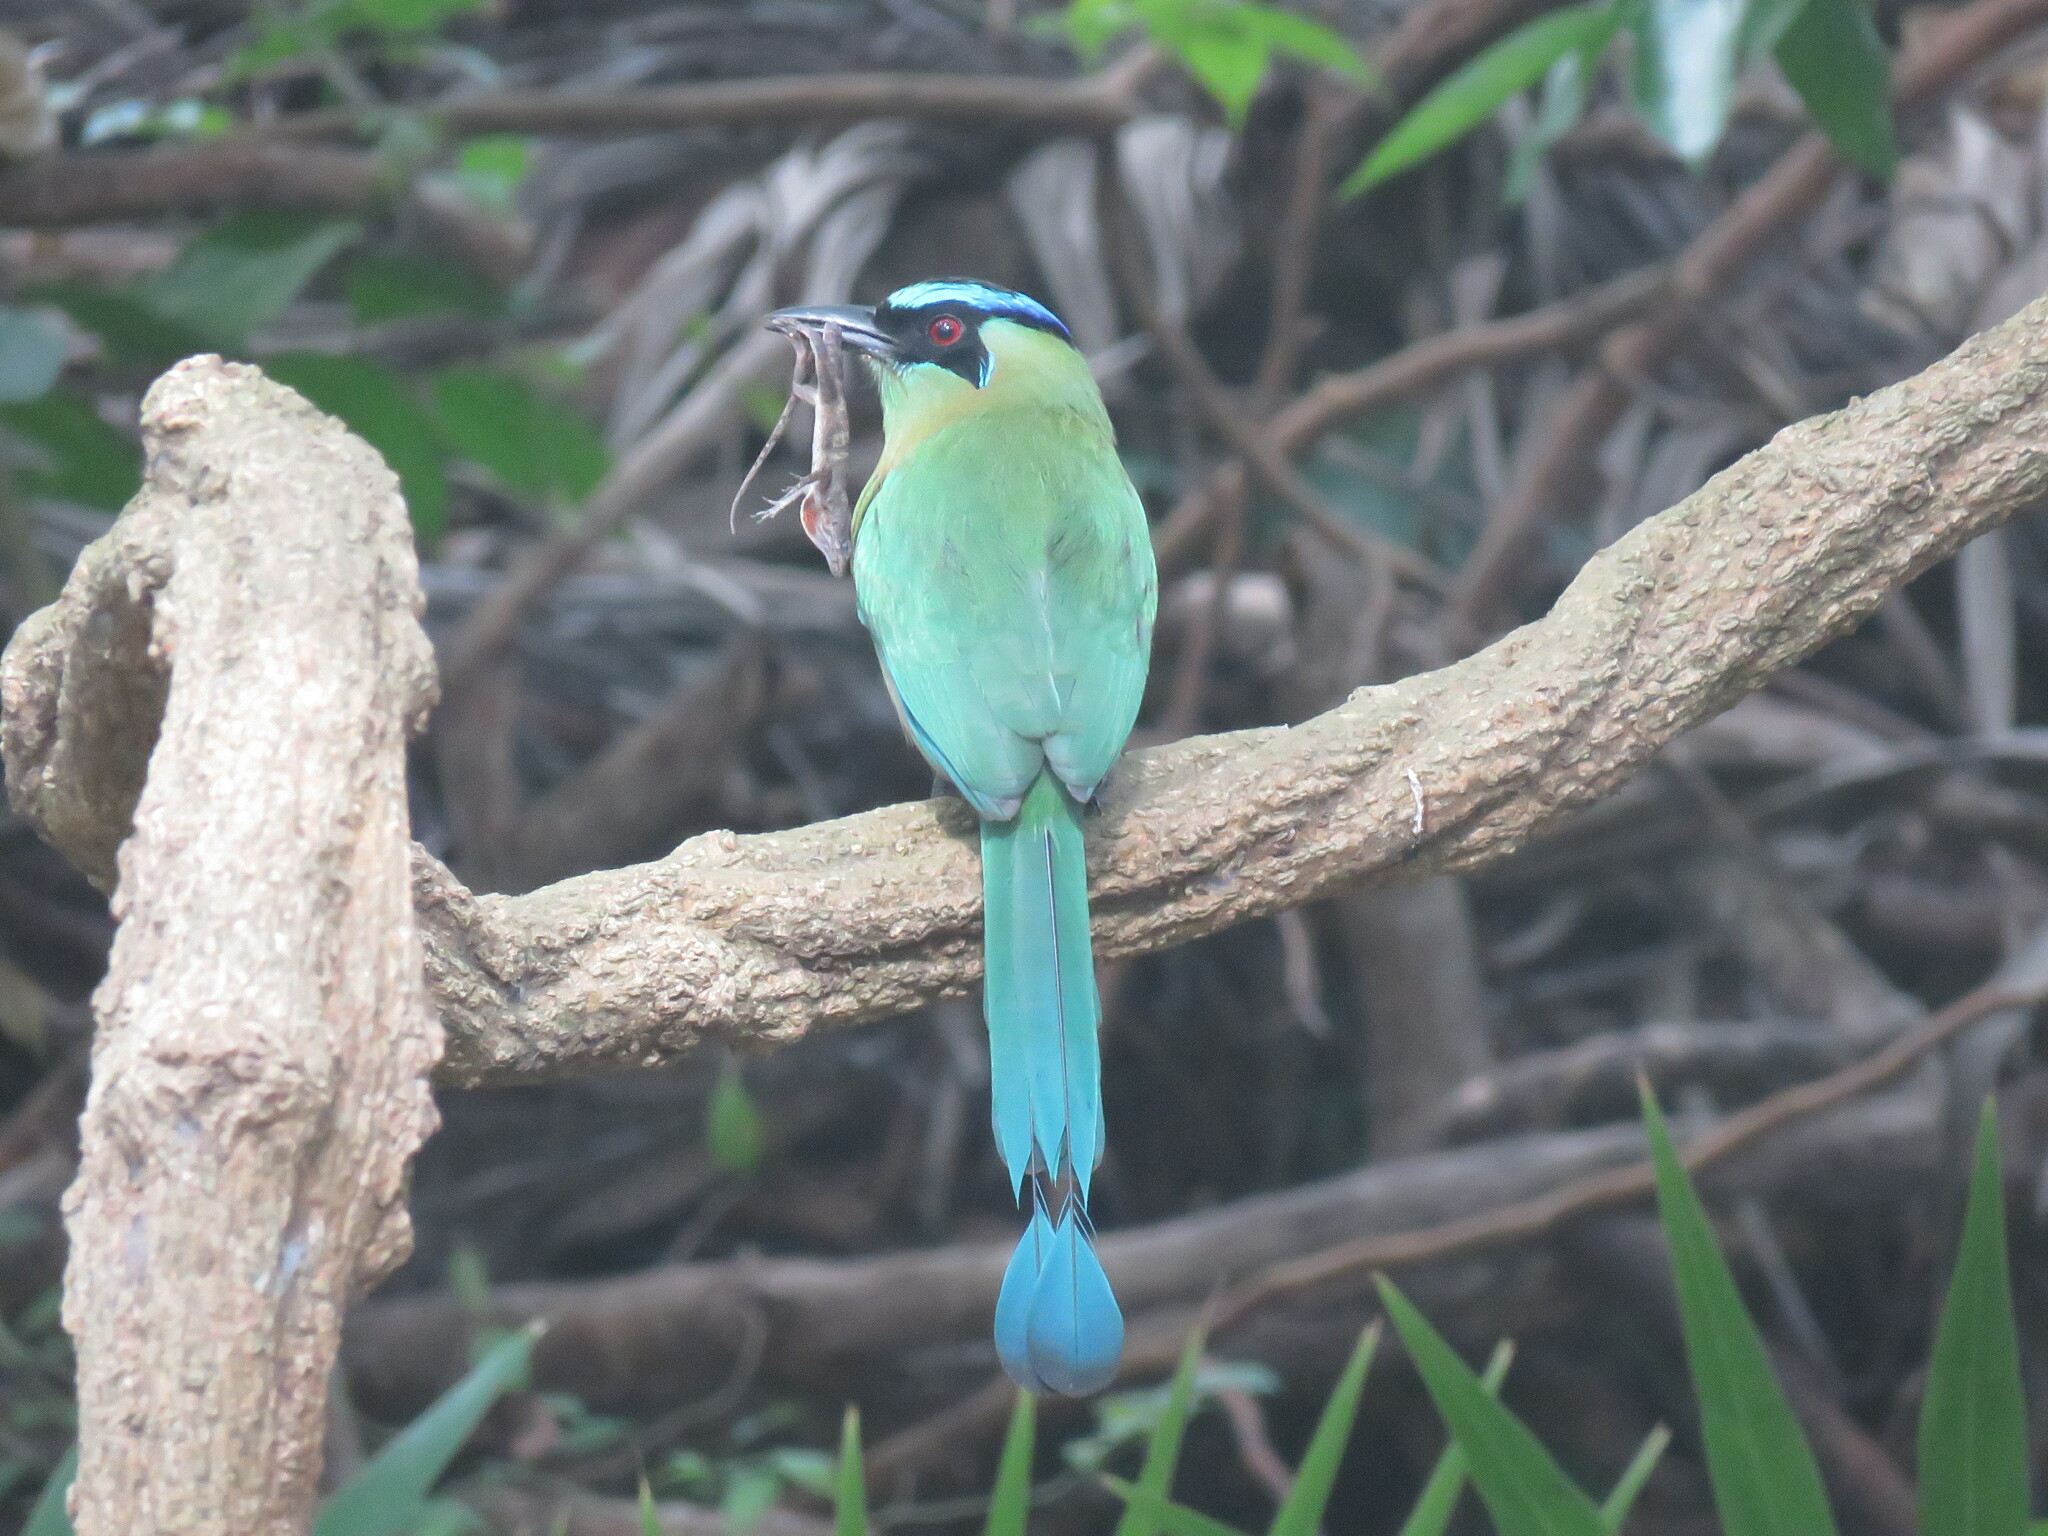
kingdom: Animalia
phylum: Chordata
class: Aves
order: Coraciiformes
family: Momotidae
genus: Momotus
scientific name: Momotus lessonii
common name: Lesson's motmot
